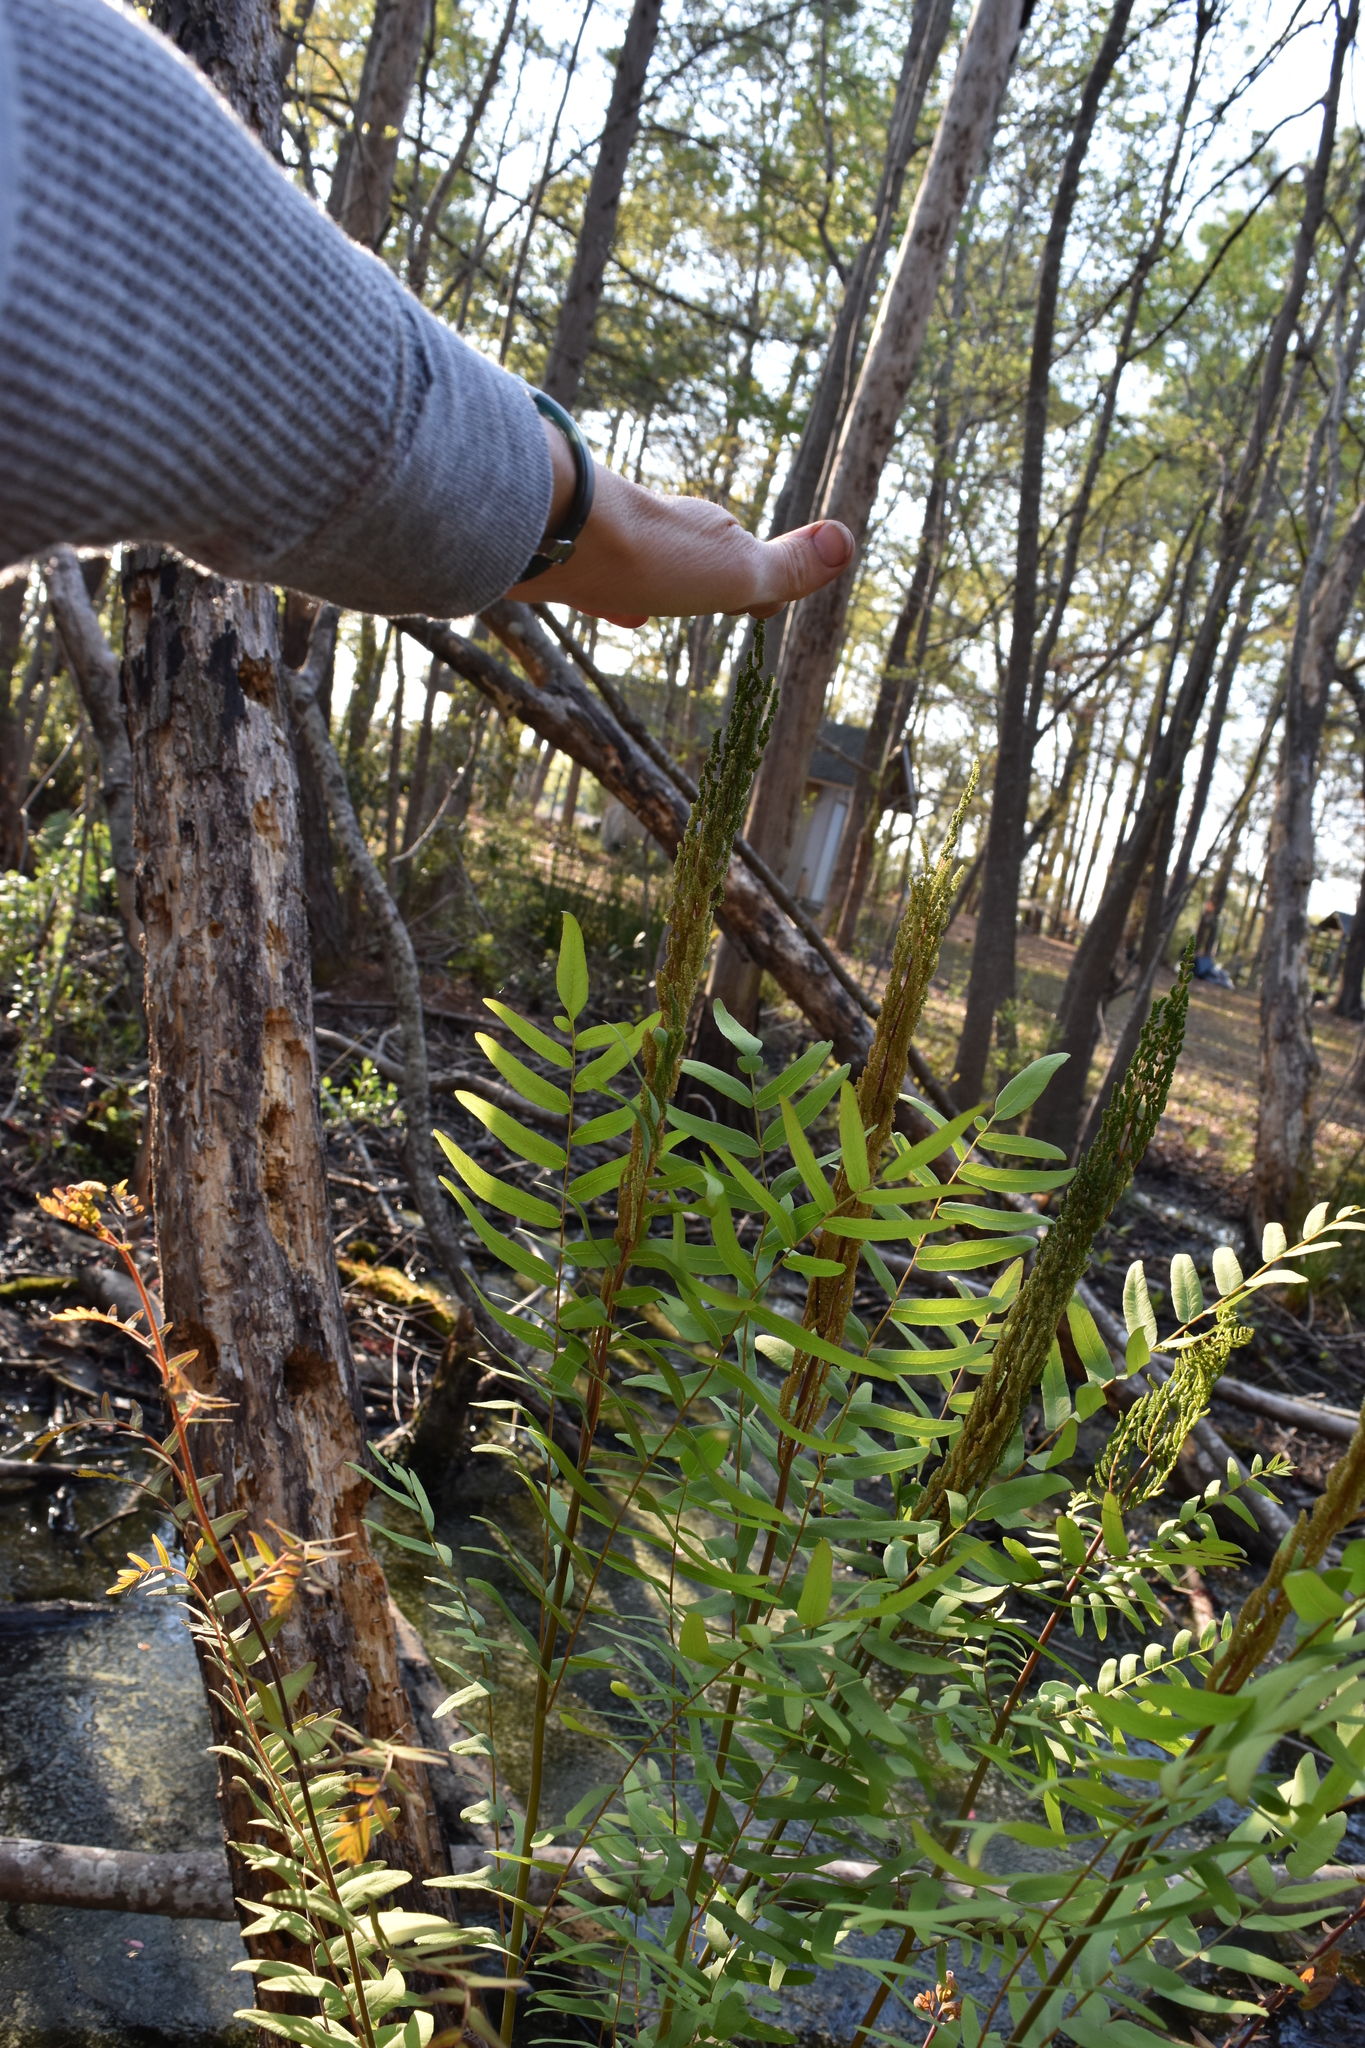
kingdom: Plantae
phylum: Tracheophyta
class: Polypodiopsida
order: Osmundales
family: Osmundaceae
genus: Osmunda
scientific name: Osmunda spectabilis
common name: American royal fern
